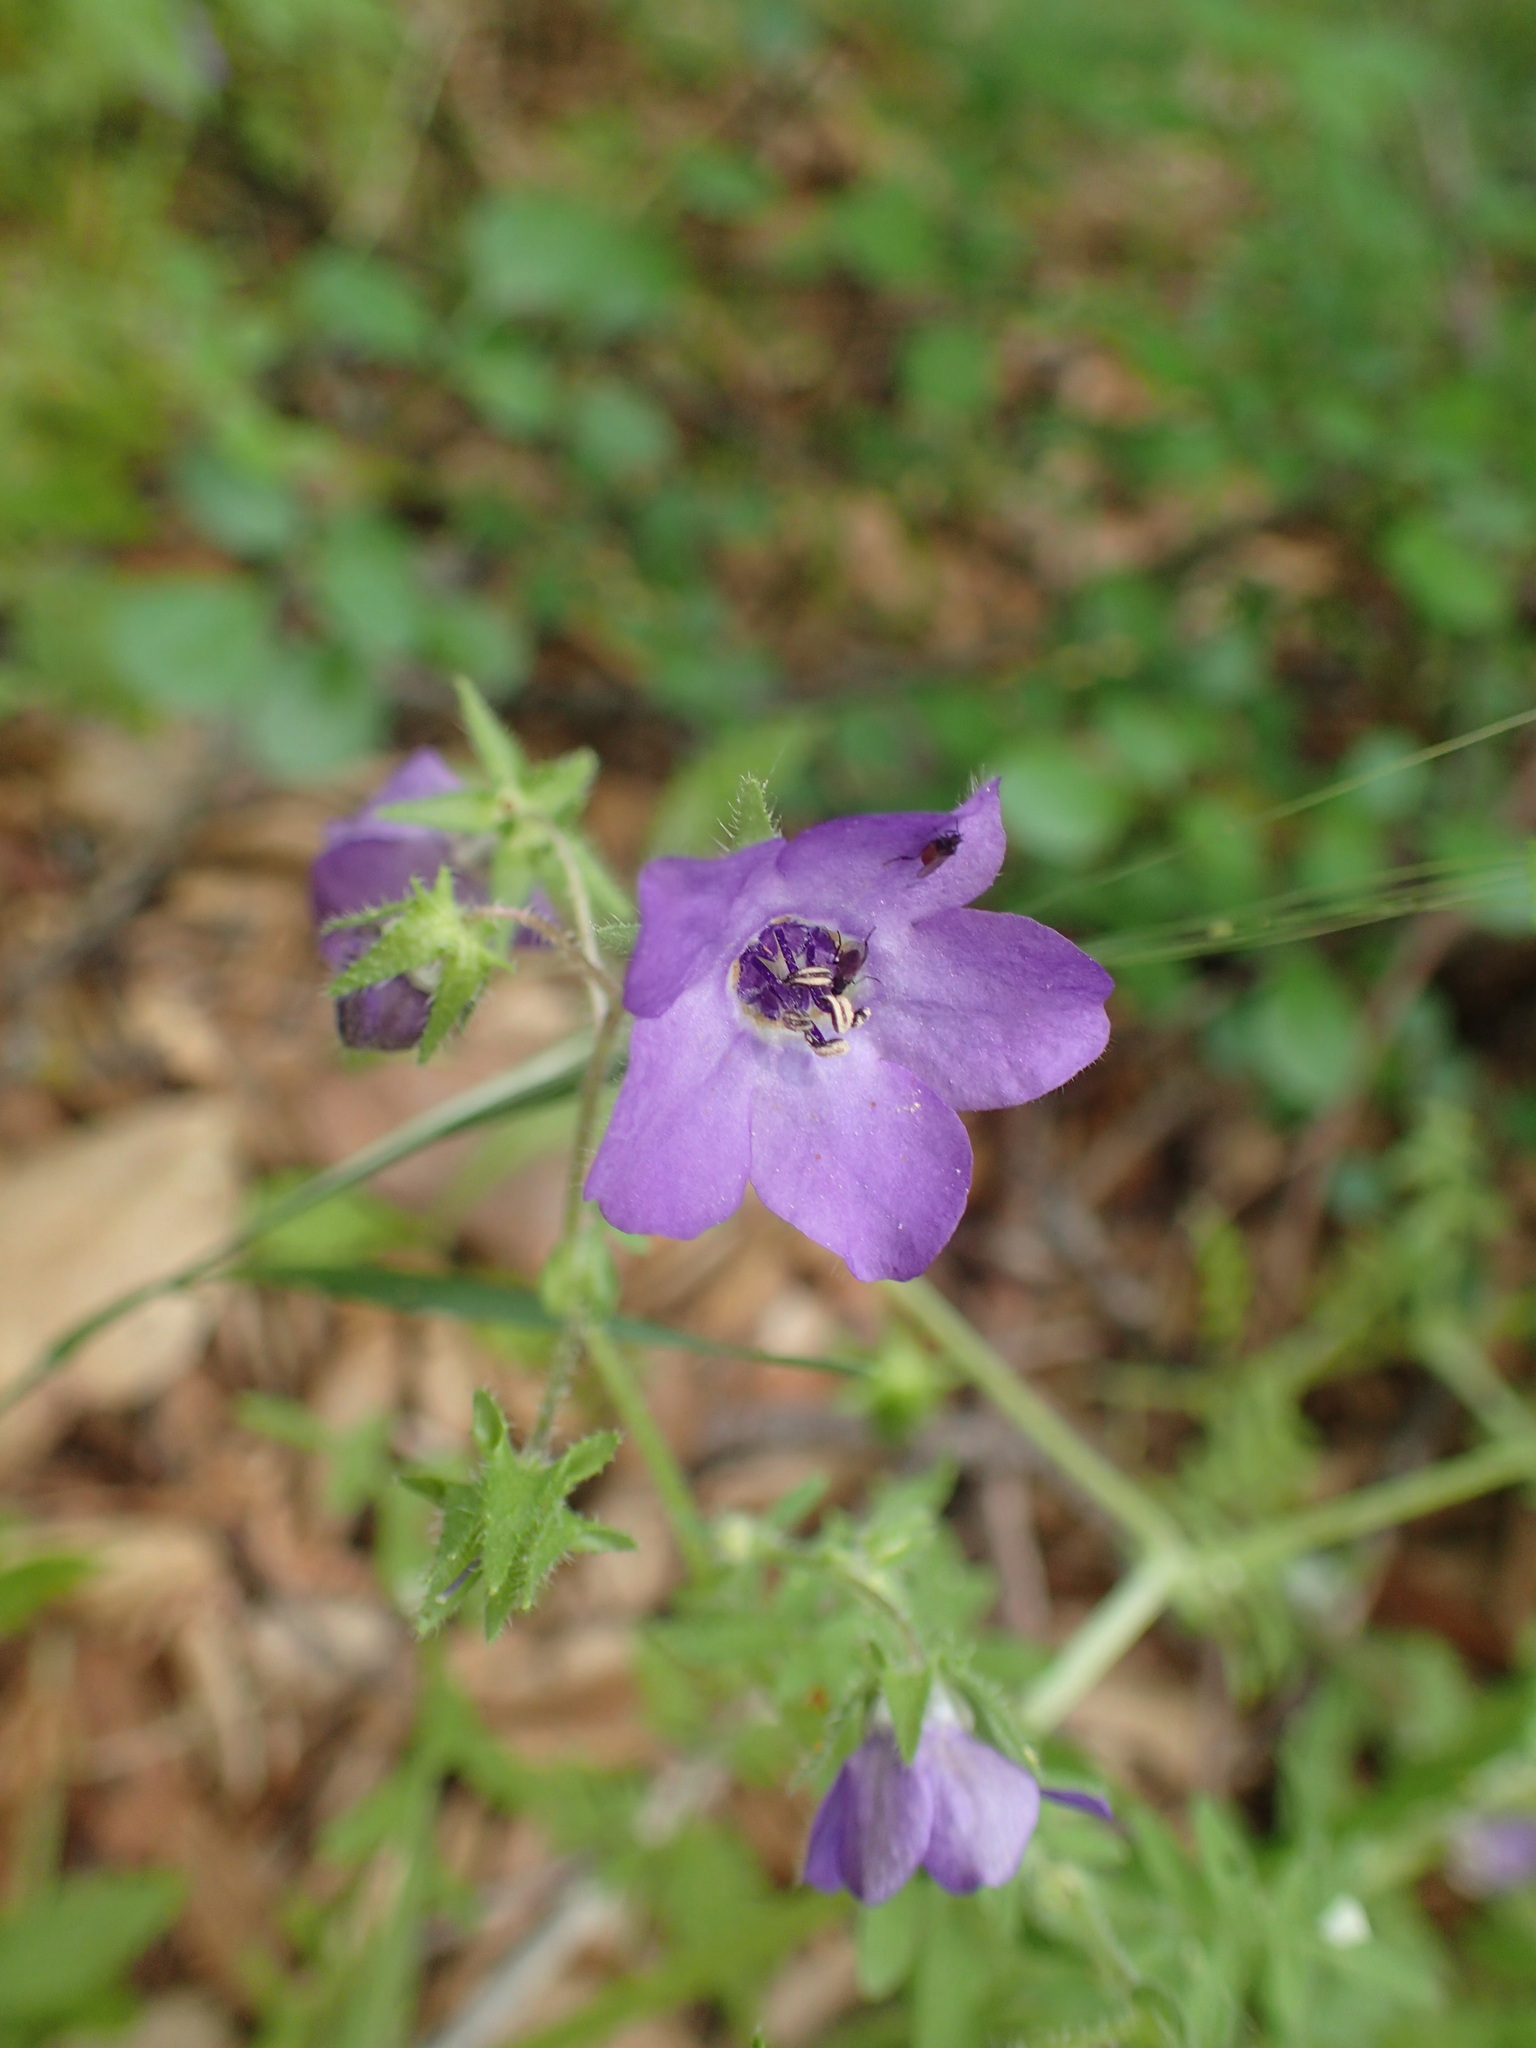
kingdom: Plantae
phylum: Tracheophyta
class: Magnoliopsida
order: Boraginales
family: Hydrophyllaceae
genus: Pholistoma
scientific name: Pholistoma auritum
